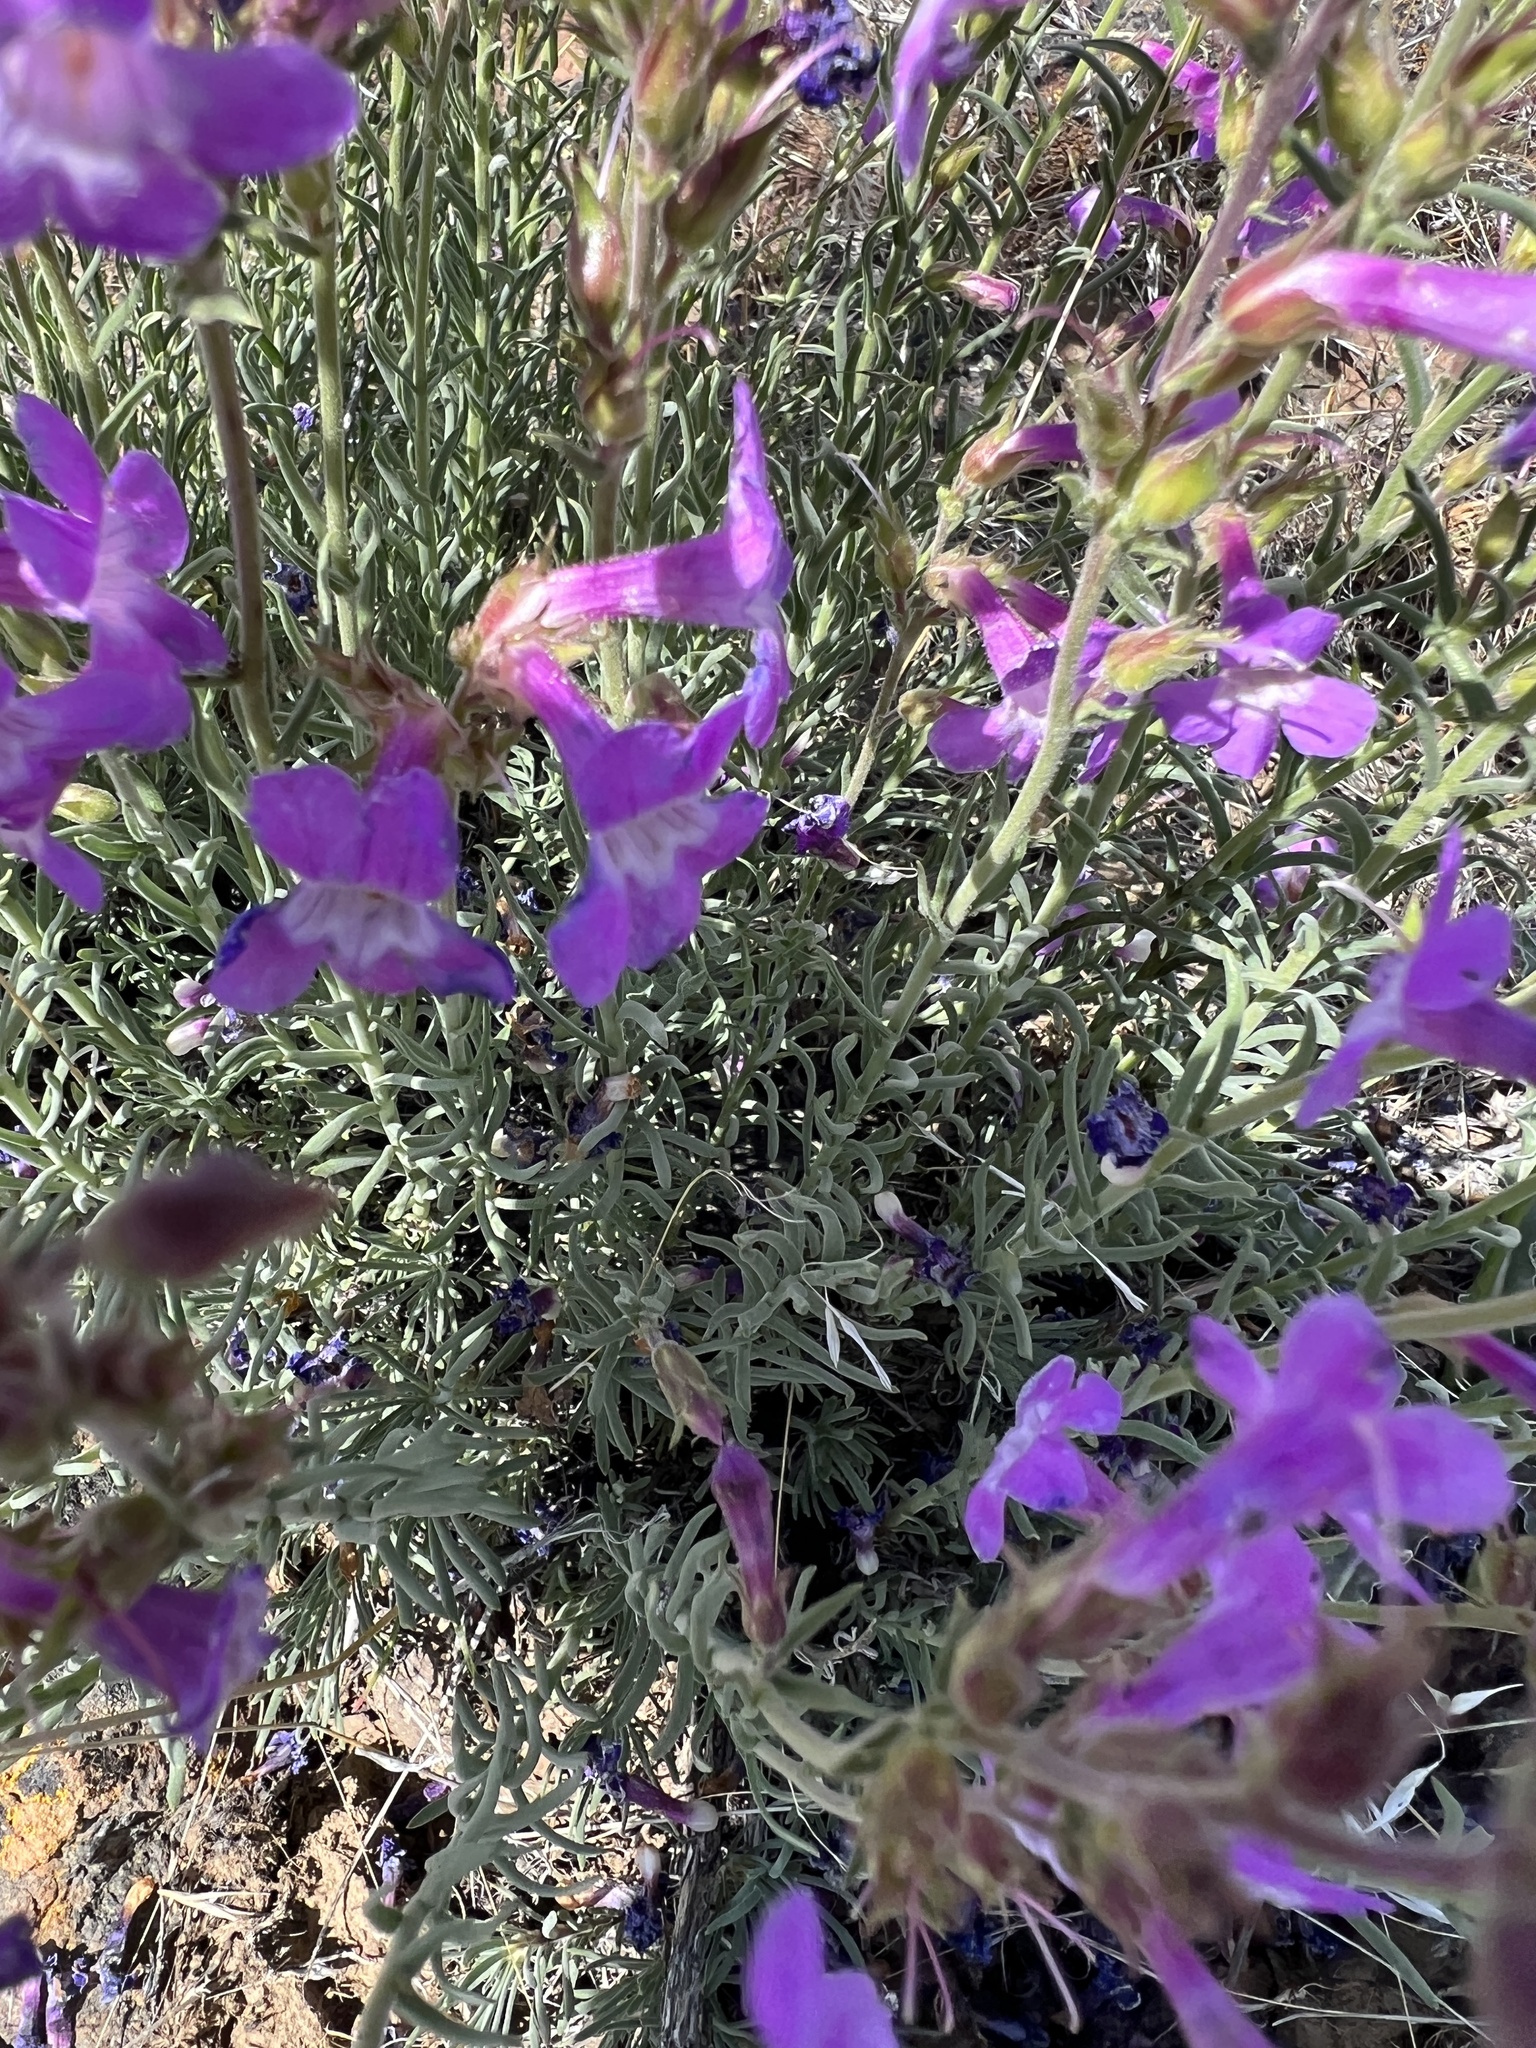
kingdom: Plantae
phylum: Tracheophyta
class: Magnoliopsida
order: Lamiales
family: Plantaginaceae
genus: Penstemon
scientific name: Penstemon gairdneri
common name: Gairdner's penstemon
